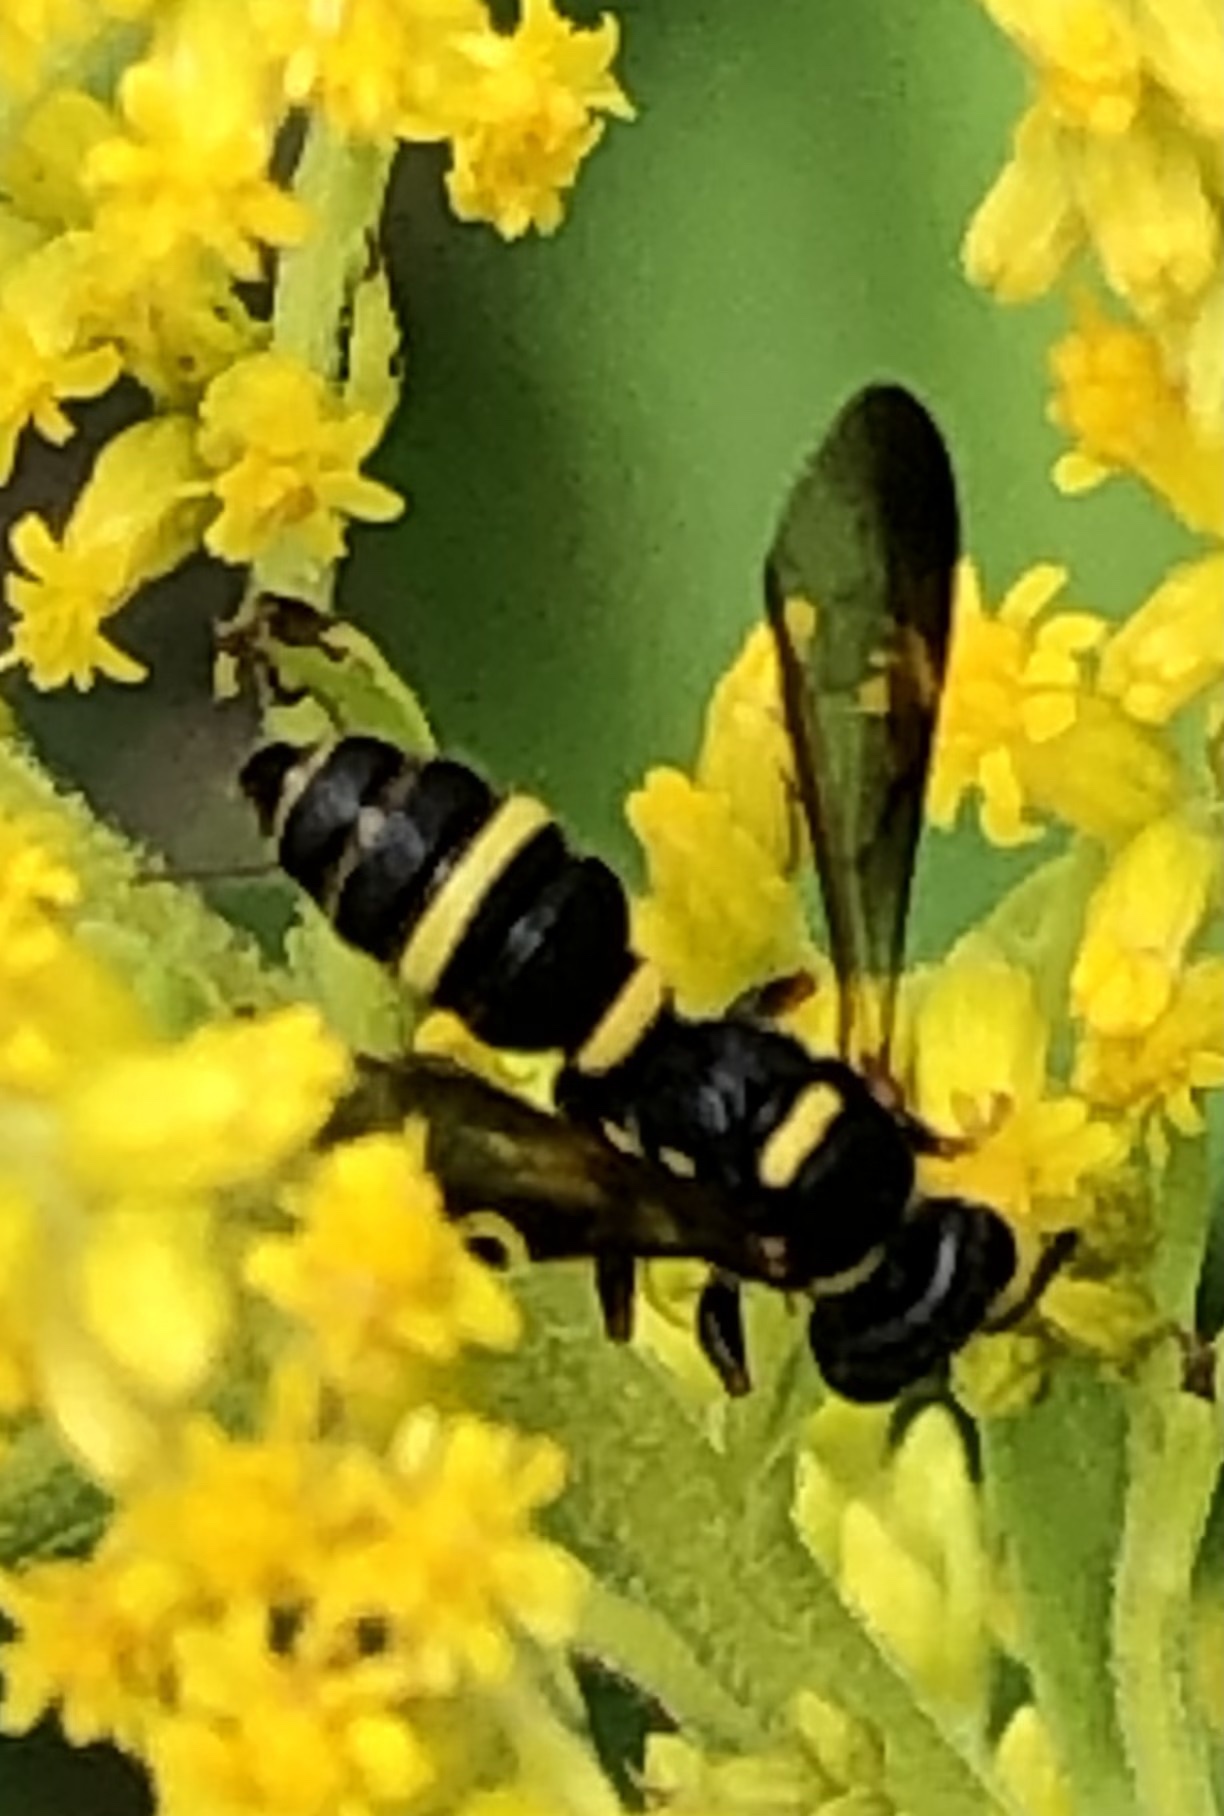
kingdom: Animalia
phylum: Arthropoda
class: Insecta
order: Hymenoptera
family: Crabronidae
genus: Cerceris
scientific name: Cerceris insolita
